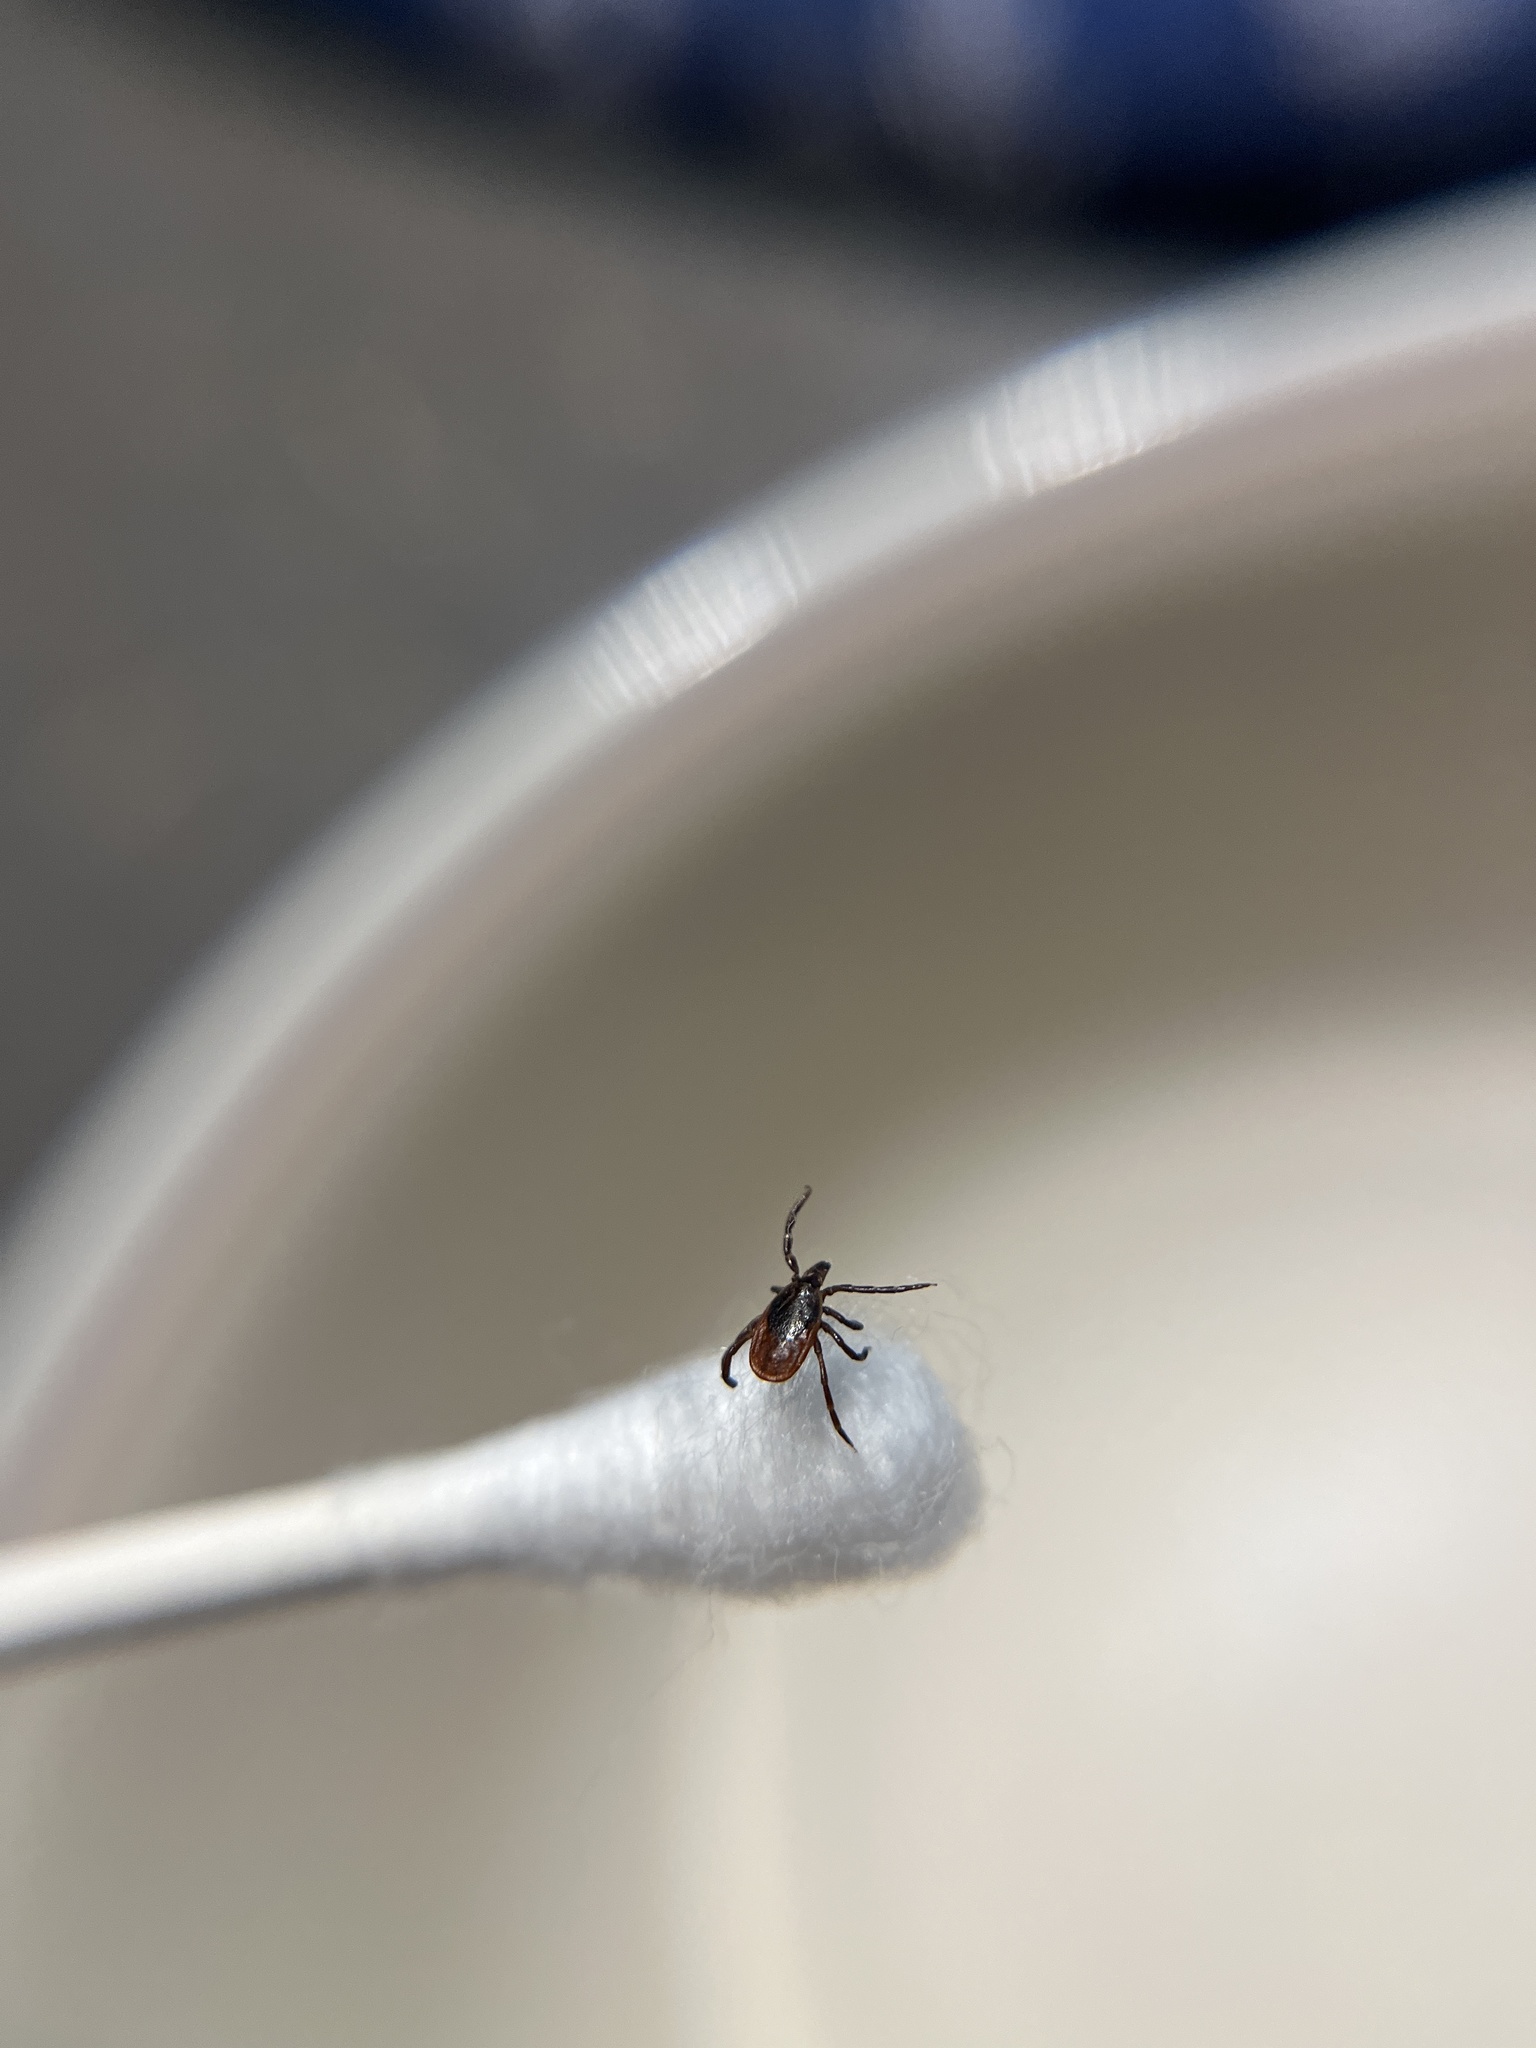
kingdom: Animalia
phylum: Arthropoda
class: Arachnida
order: Ixodida
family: Ixodidae
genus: Ixodes
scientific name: Ixodes scapularis
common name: Black legged tick
